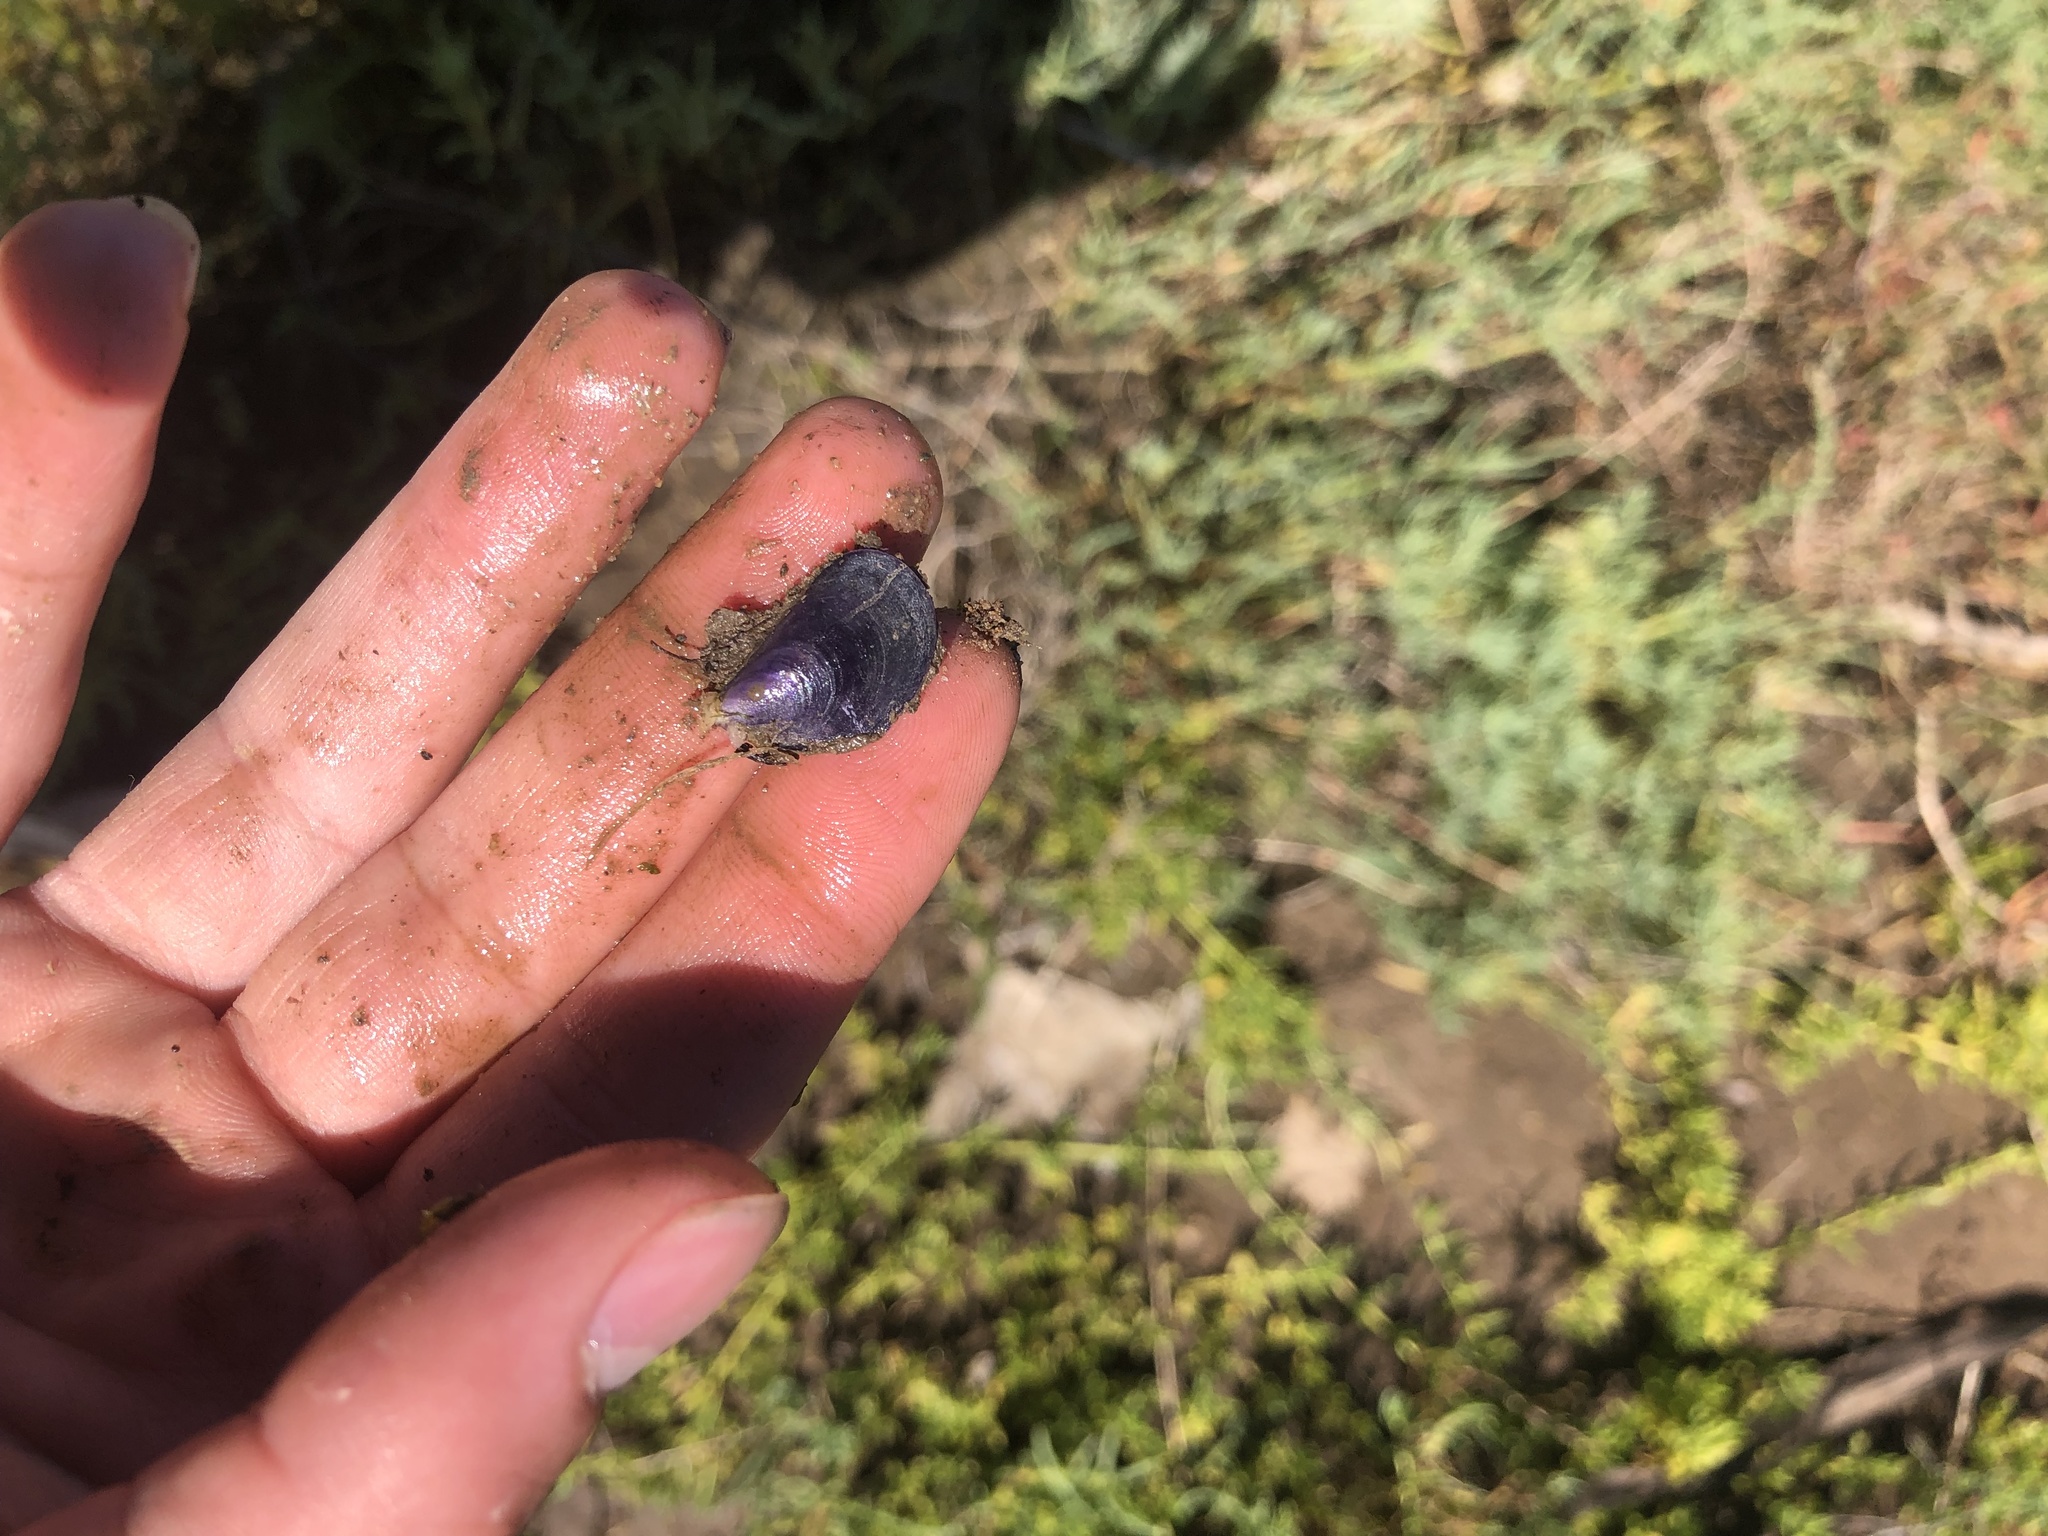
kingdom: Animalia
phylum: Mollusca
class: Bivalvia
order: Mytilida
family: Mytilidae
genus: Mytilus
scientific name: Mytilus galloprovincialis
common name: Mediterranean mussel
